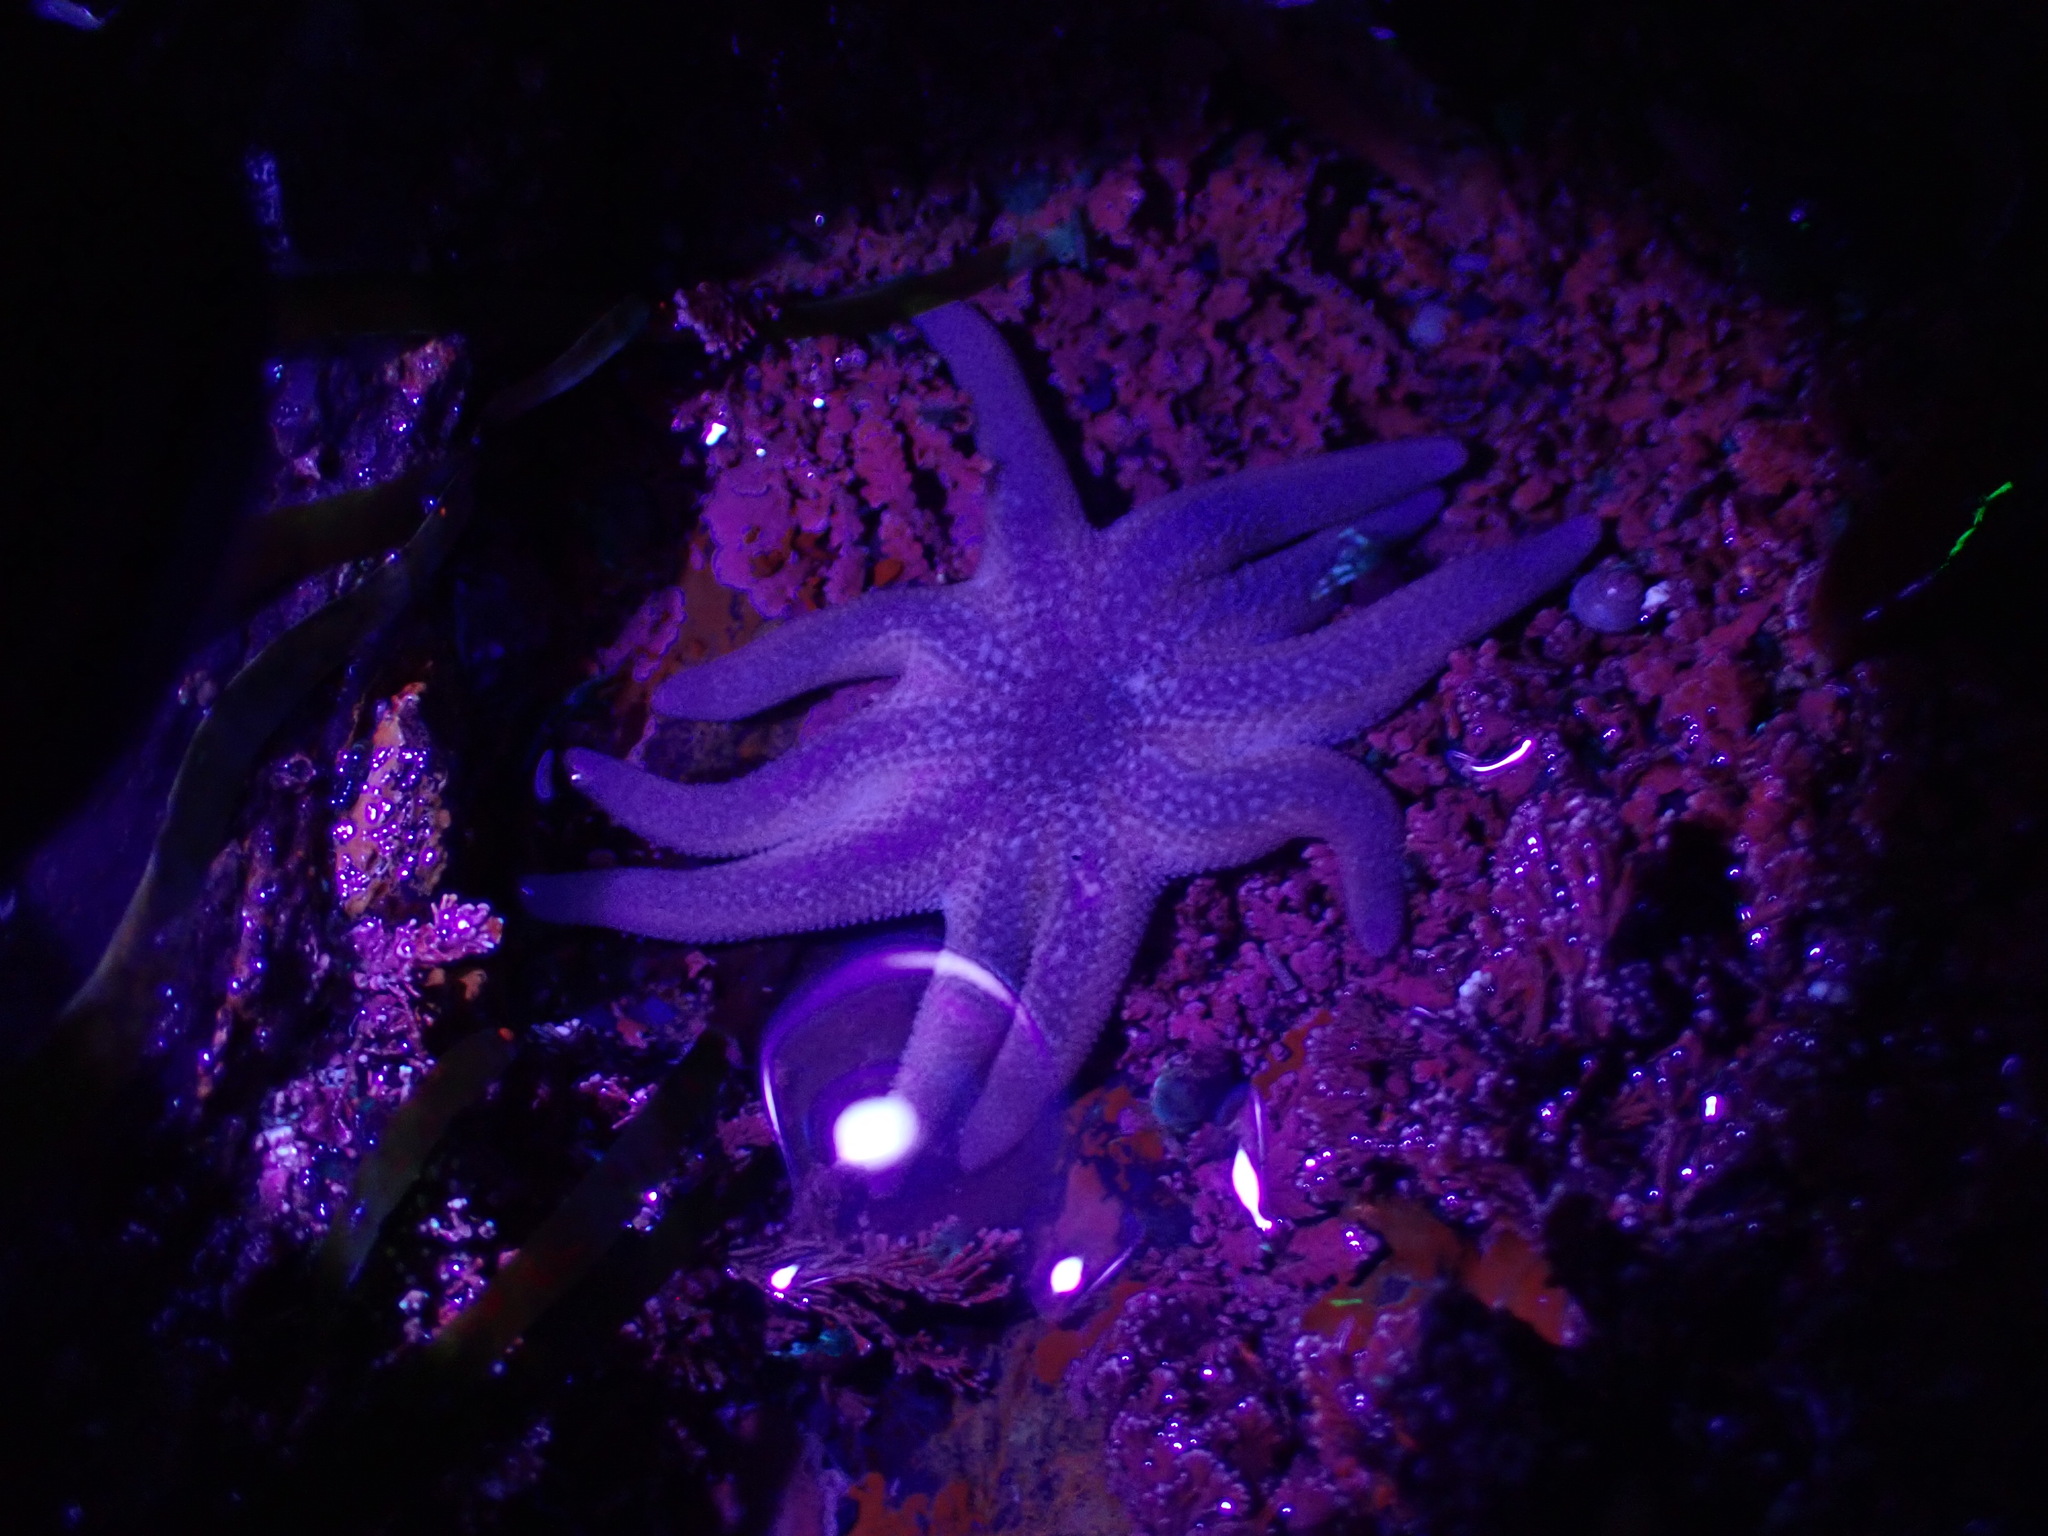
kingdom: Animalia
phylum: Echinodermata
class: Asteroidea
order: Valvatida
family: Solasteridae
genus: Solaster
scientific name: Solaster stimpsoni
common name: Orange sun star
